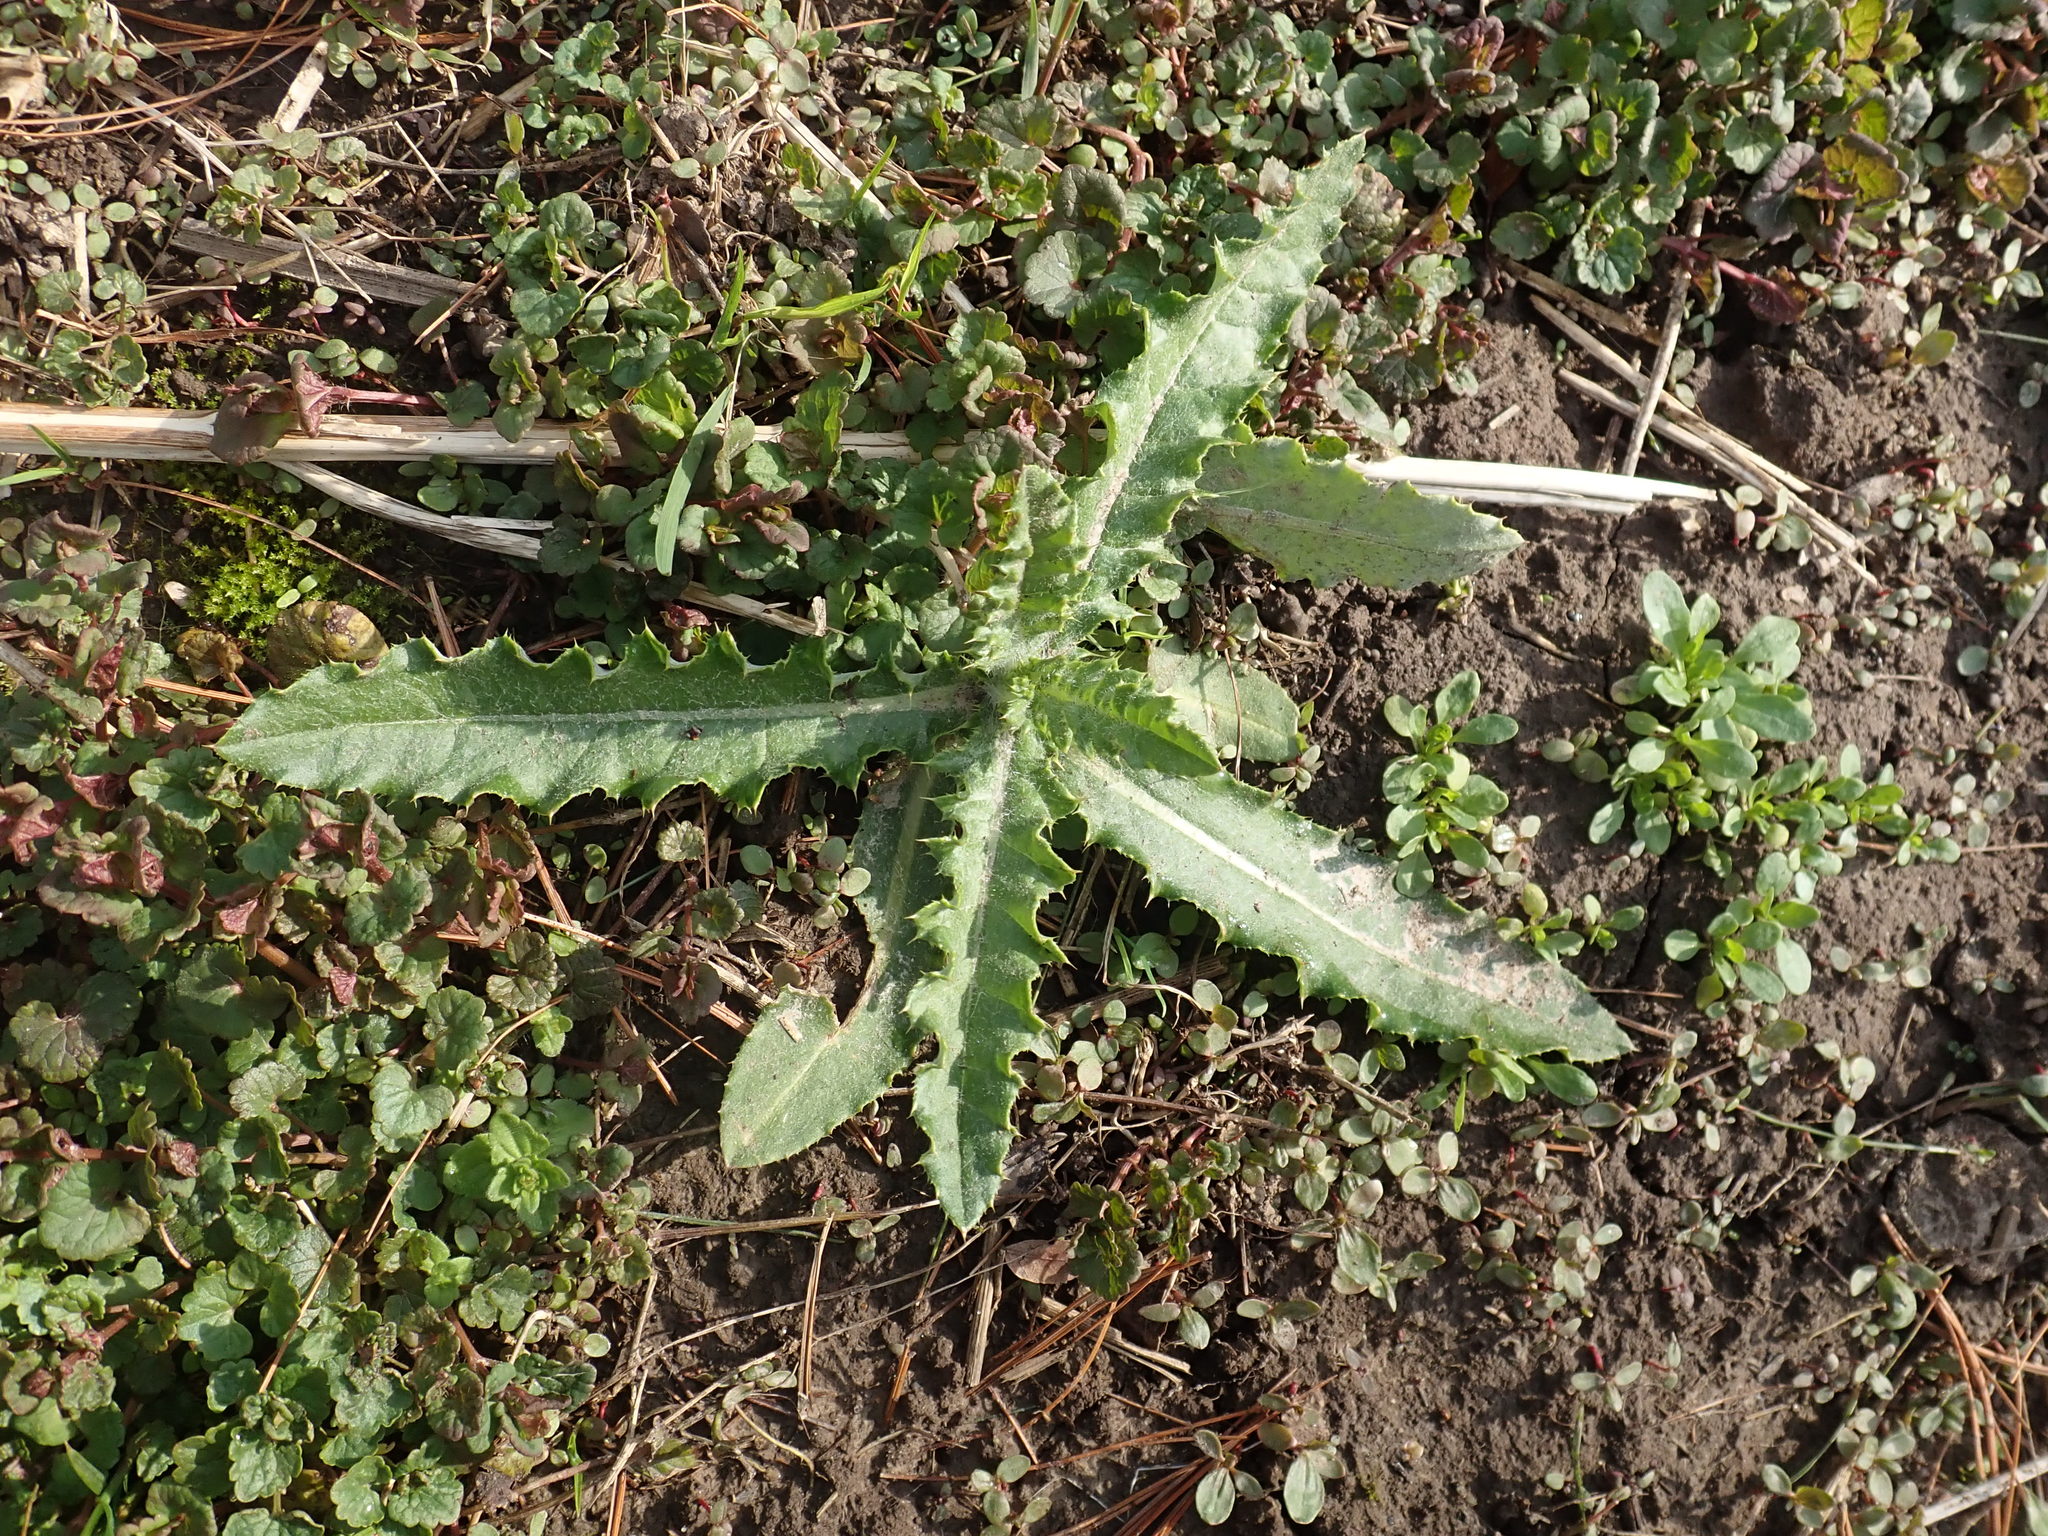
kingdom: Plantae
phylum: Tracheophyta
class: Magnoliopsida
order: Asterales
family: Asteraceae
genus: Cirsium
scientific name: Cirsium arvense
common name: Creeping thistle
